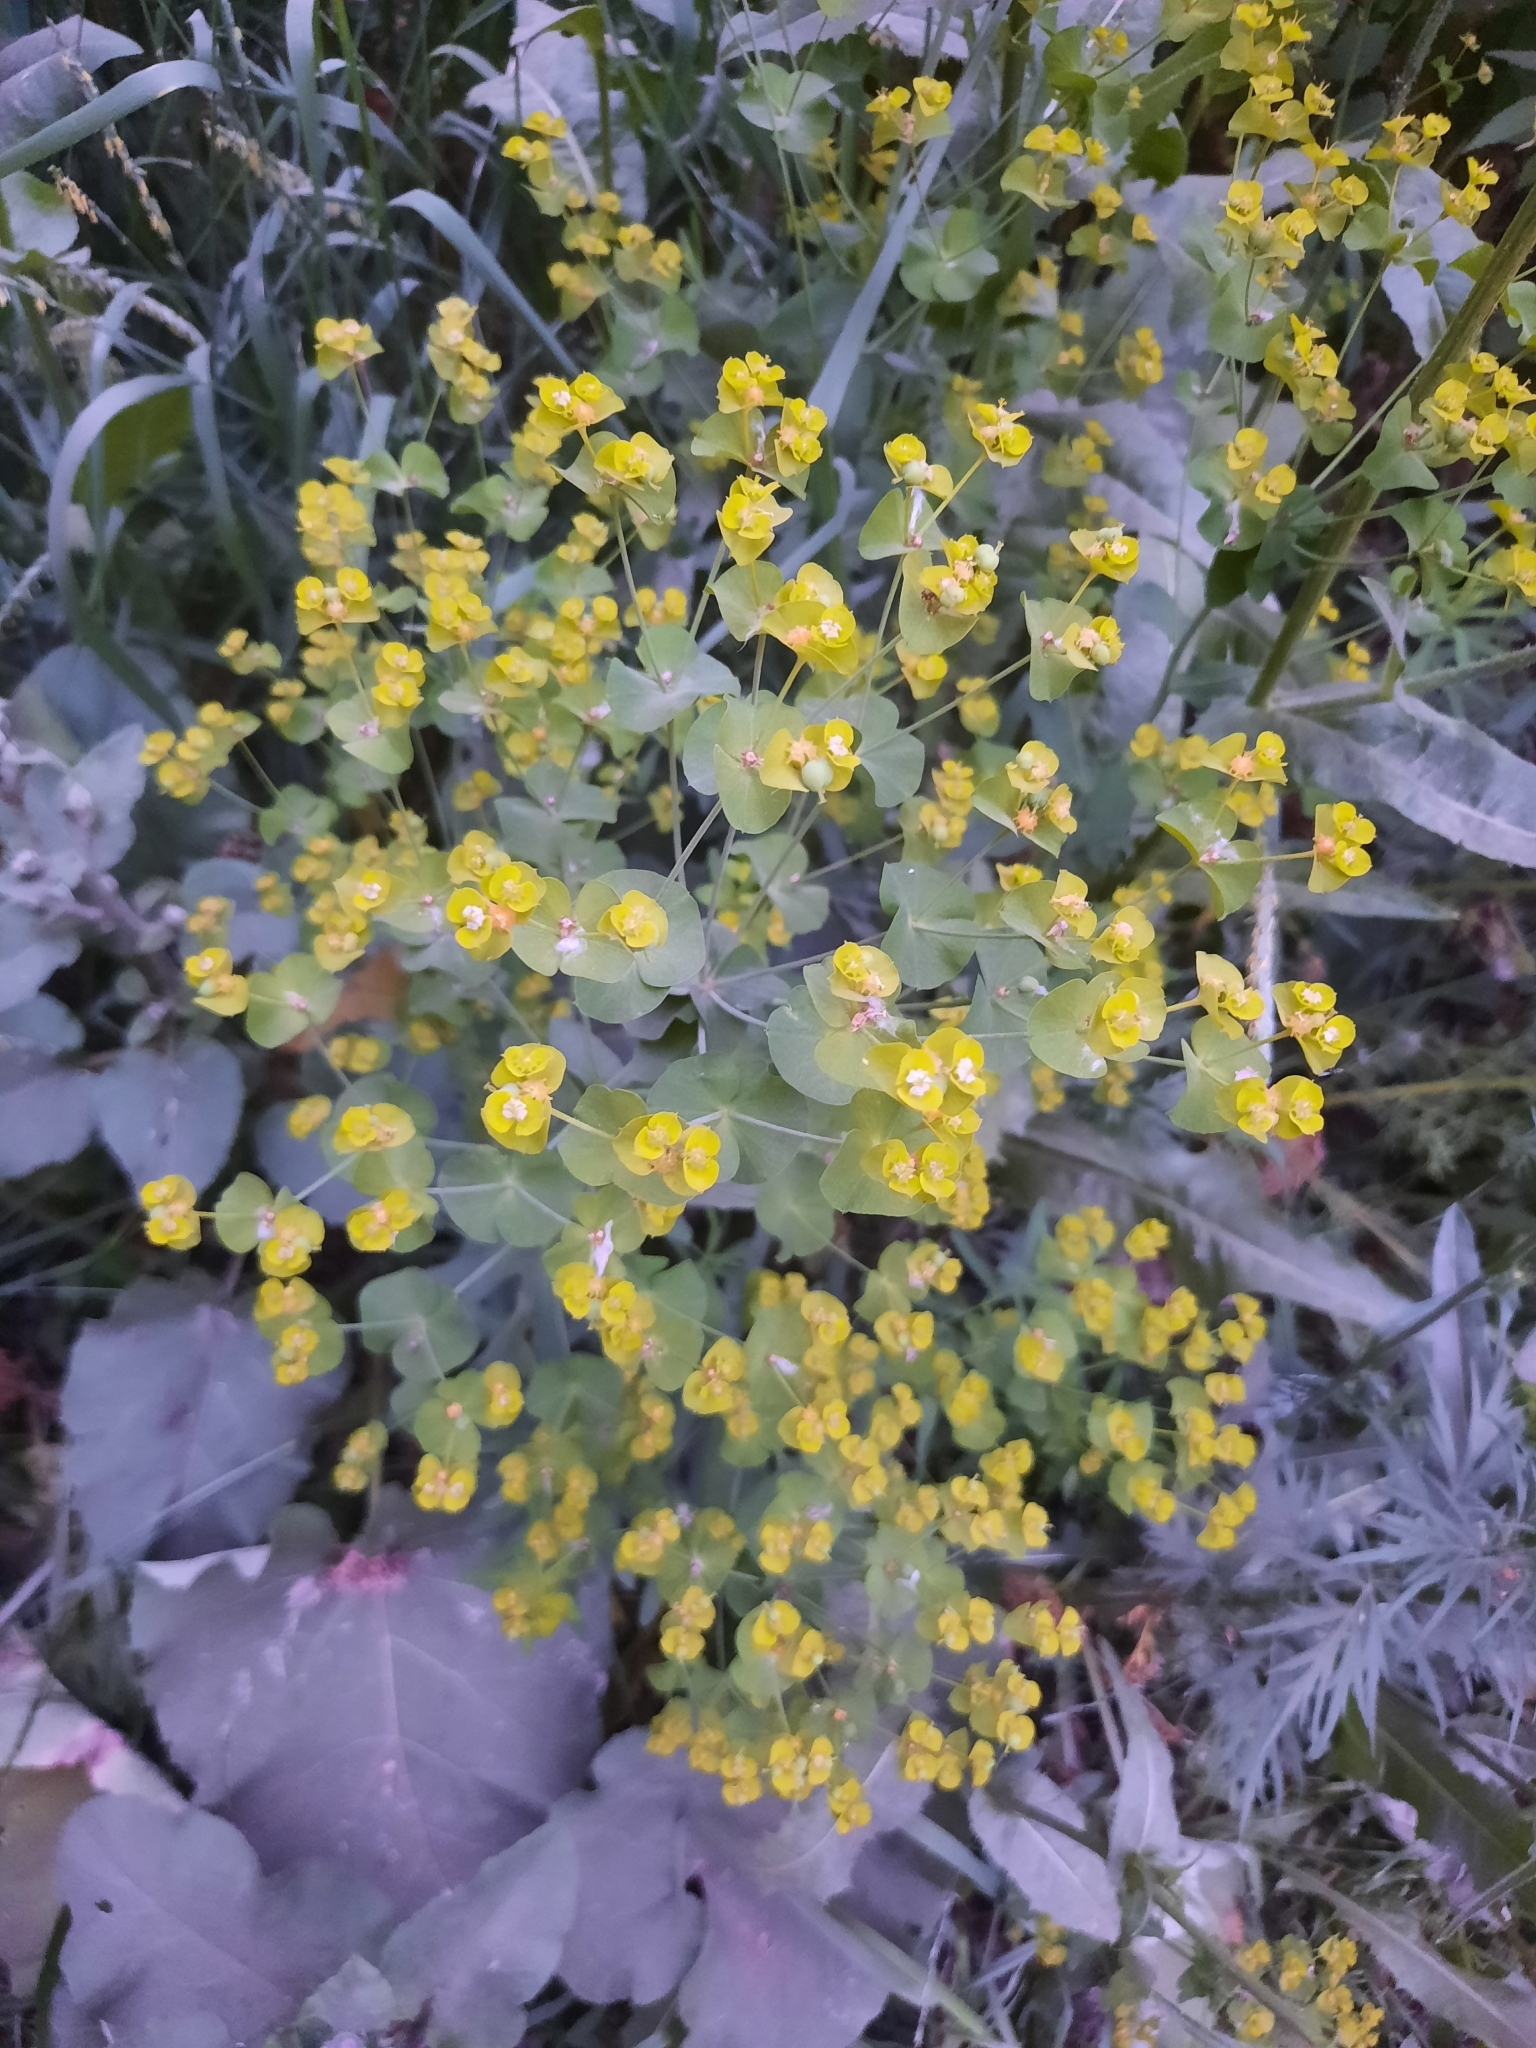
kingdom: Plantae
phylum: Tracheophyta
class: Magnoliopsida
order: Malpighiales
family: Euphorbiaceae
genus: Euphorbia
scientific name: Euphorbia virgata
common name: Leafy spurge
